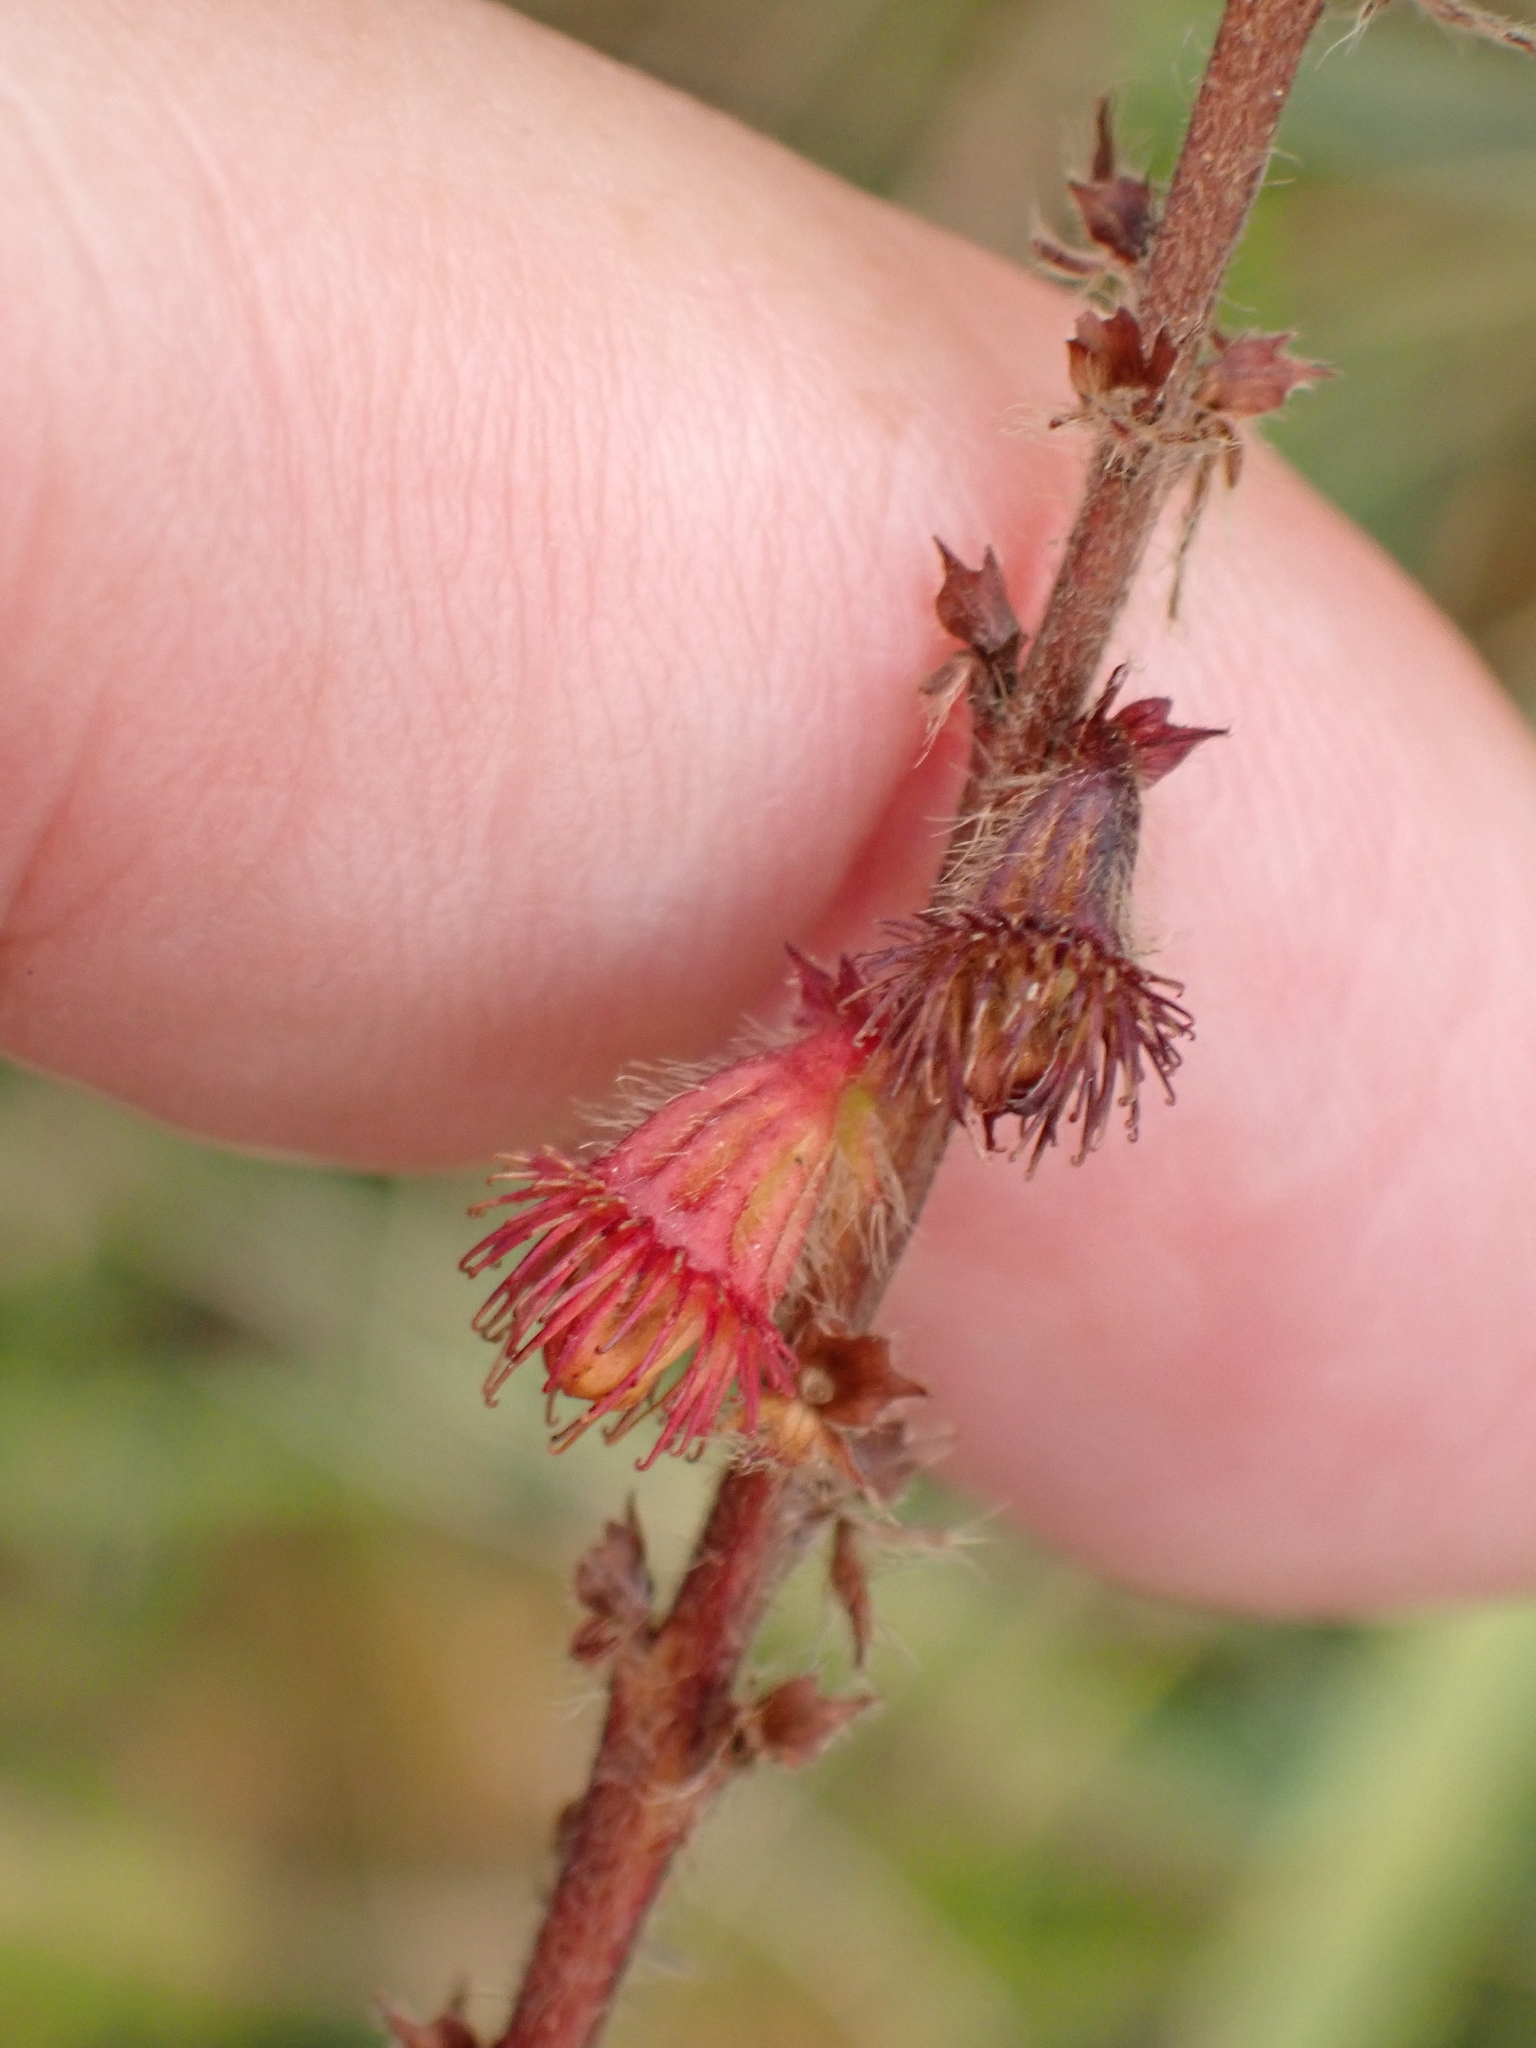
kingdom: Plantae
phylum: Tracheophyta
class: Magnoliopsida
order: Rosales
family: Rosaceae
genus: Agrimonia
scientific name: Agrimonia eupatoria
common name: Agrimony
